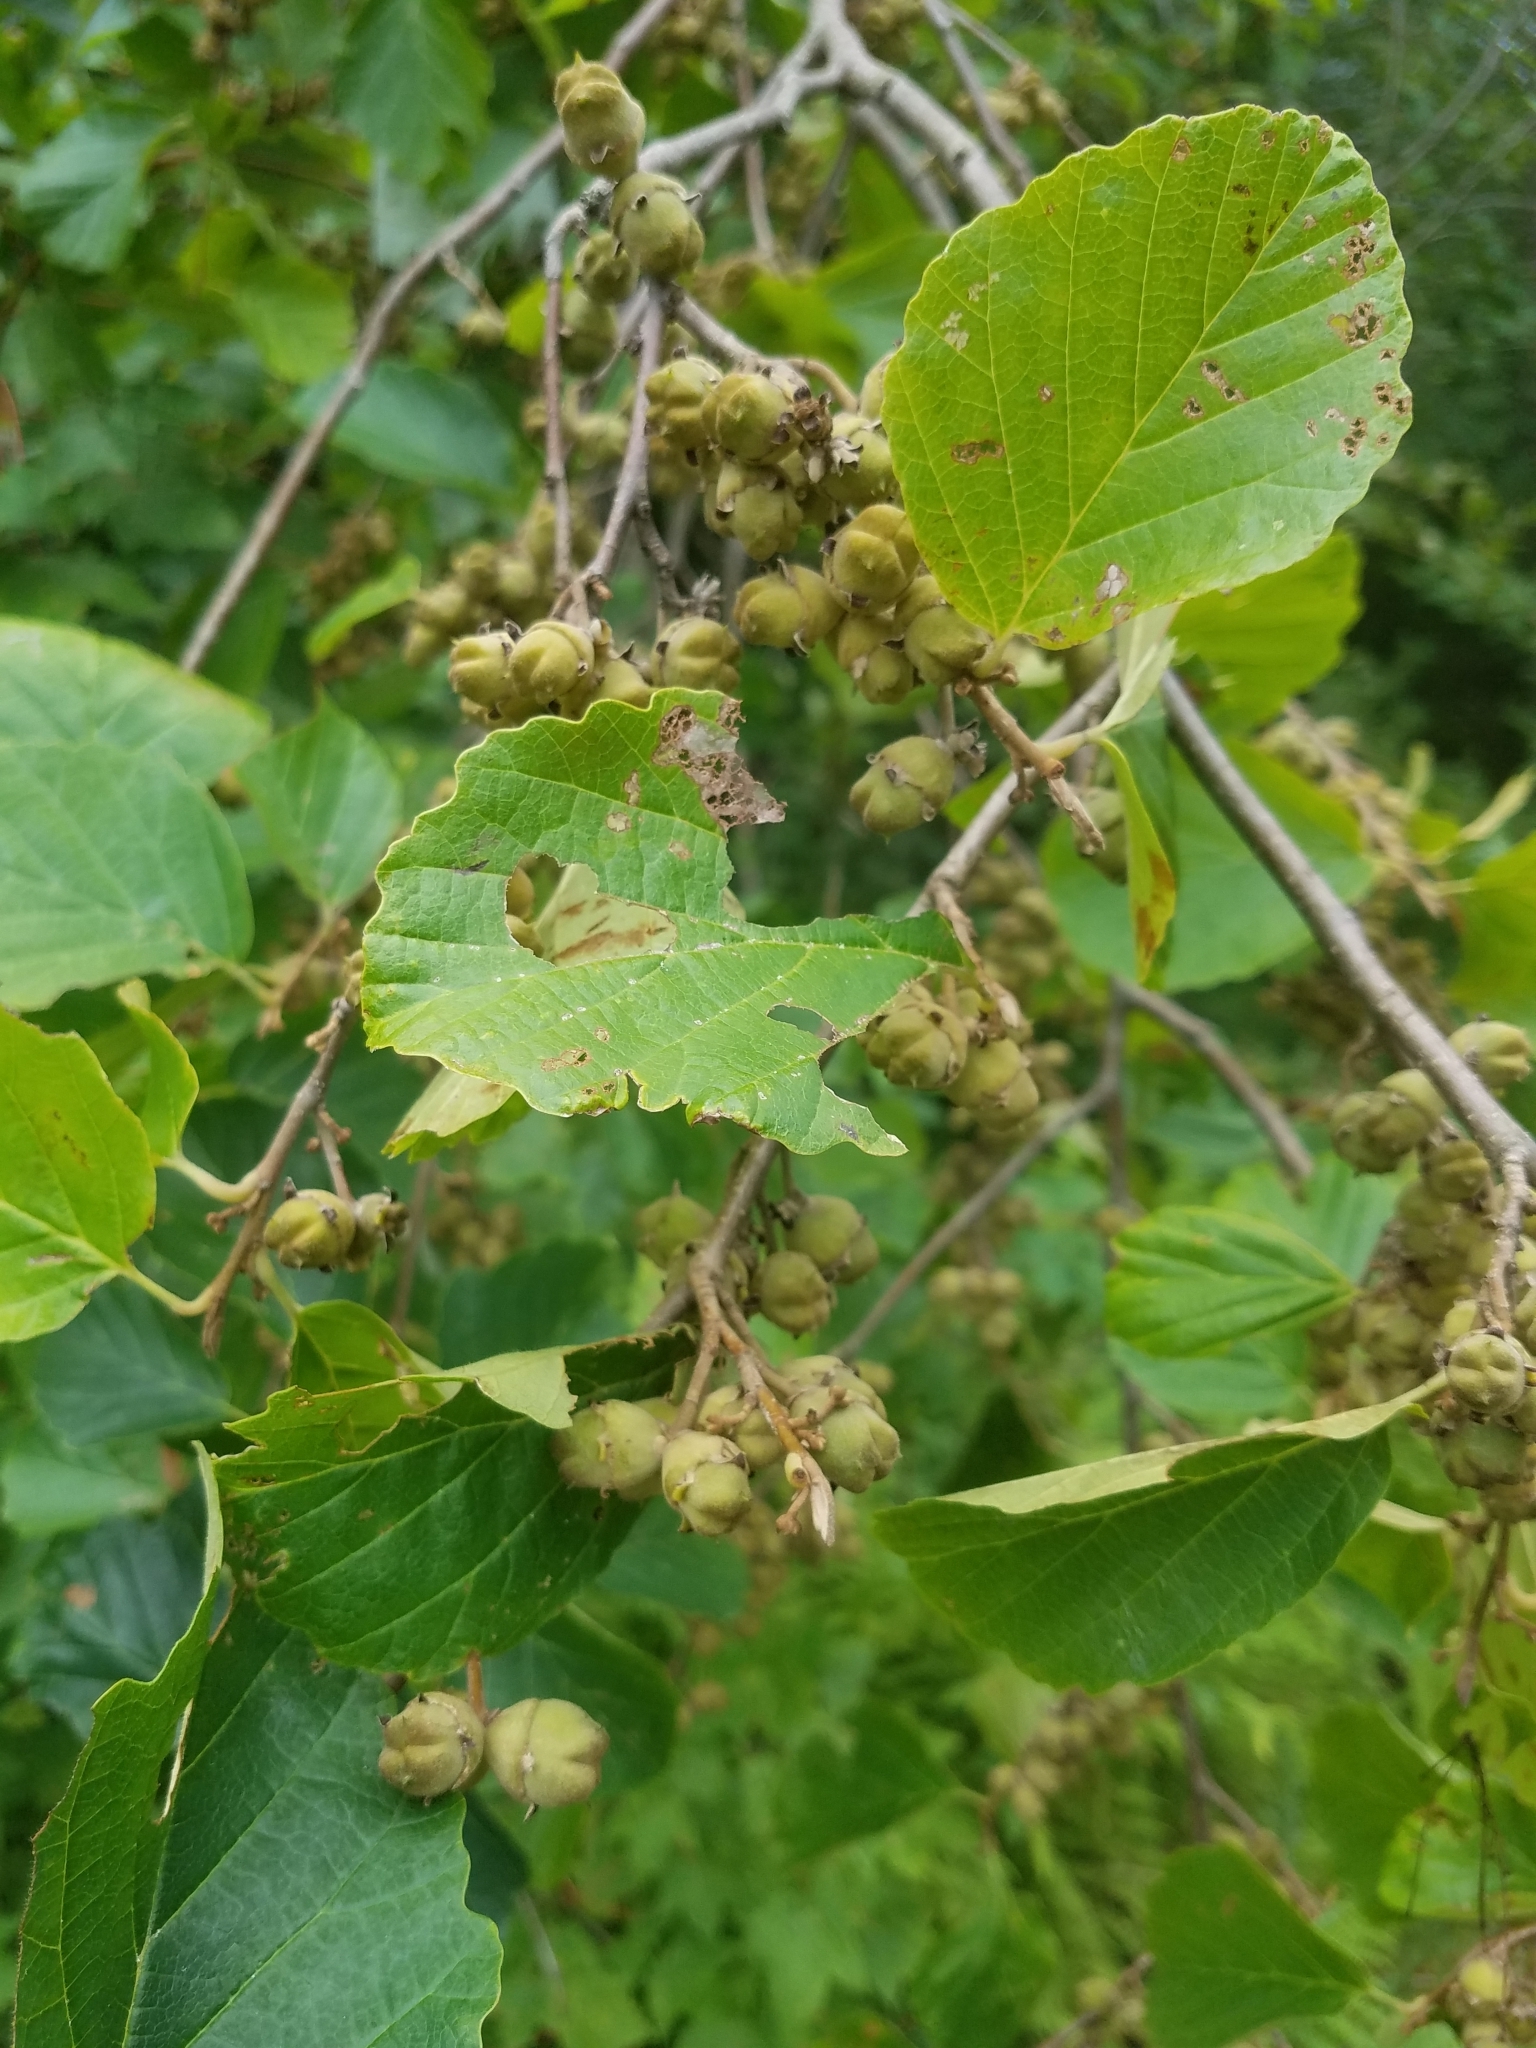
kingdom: Plantae
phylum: Tracheophyta
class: Magnoliopsida
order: Saxifragales
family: Hamamelidaceae
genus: Hamamelis
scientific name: Hamamelis virginiana
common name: Witch-hazel
